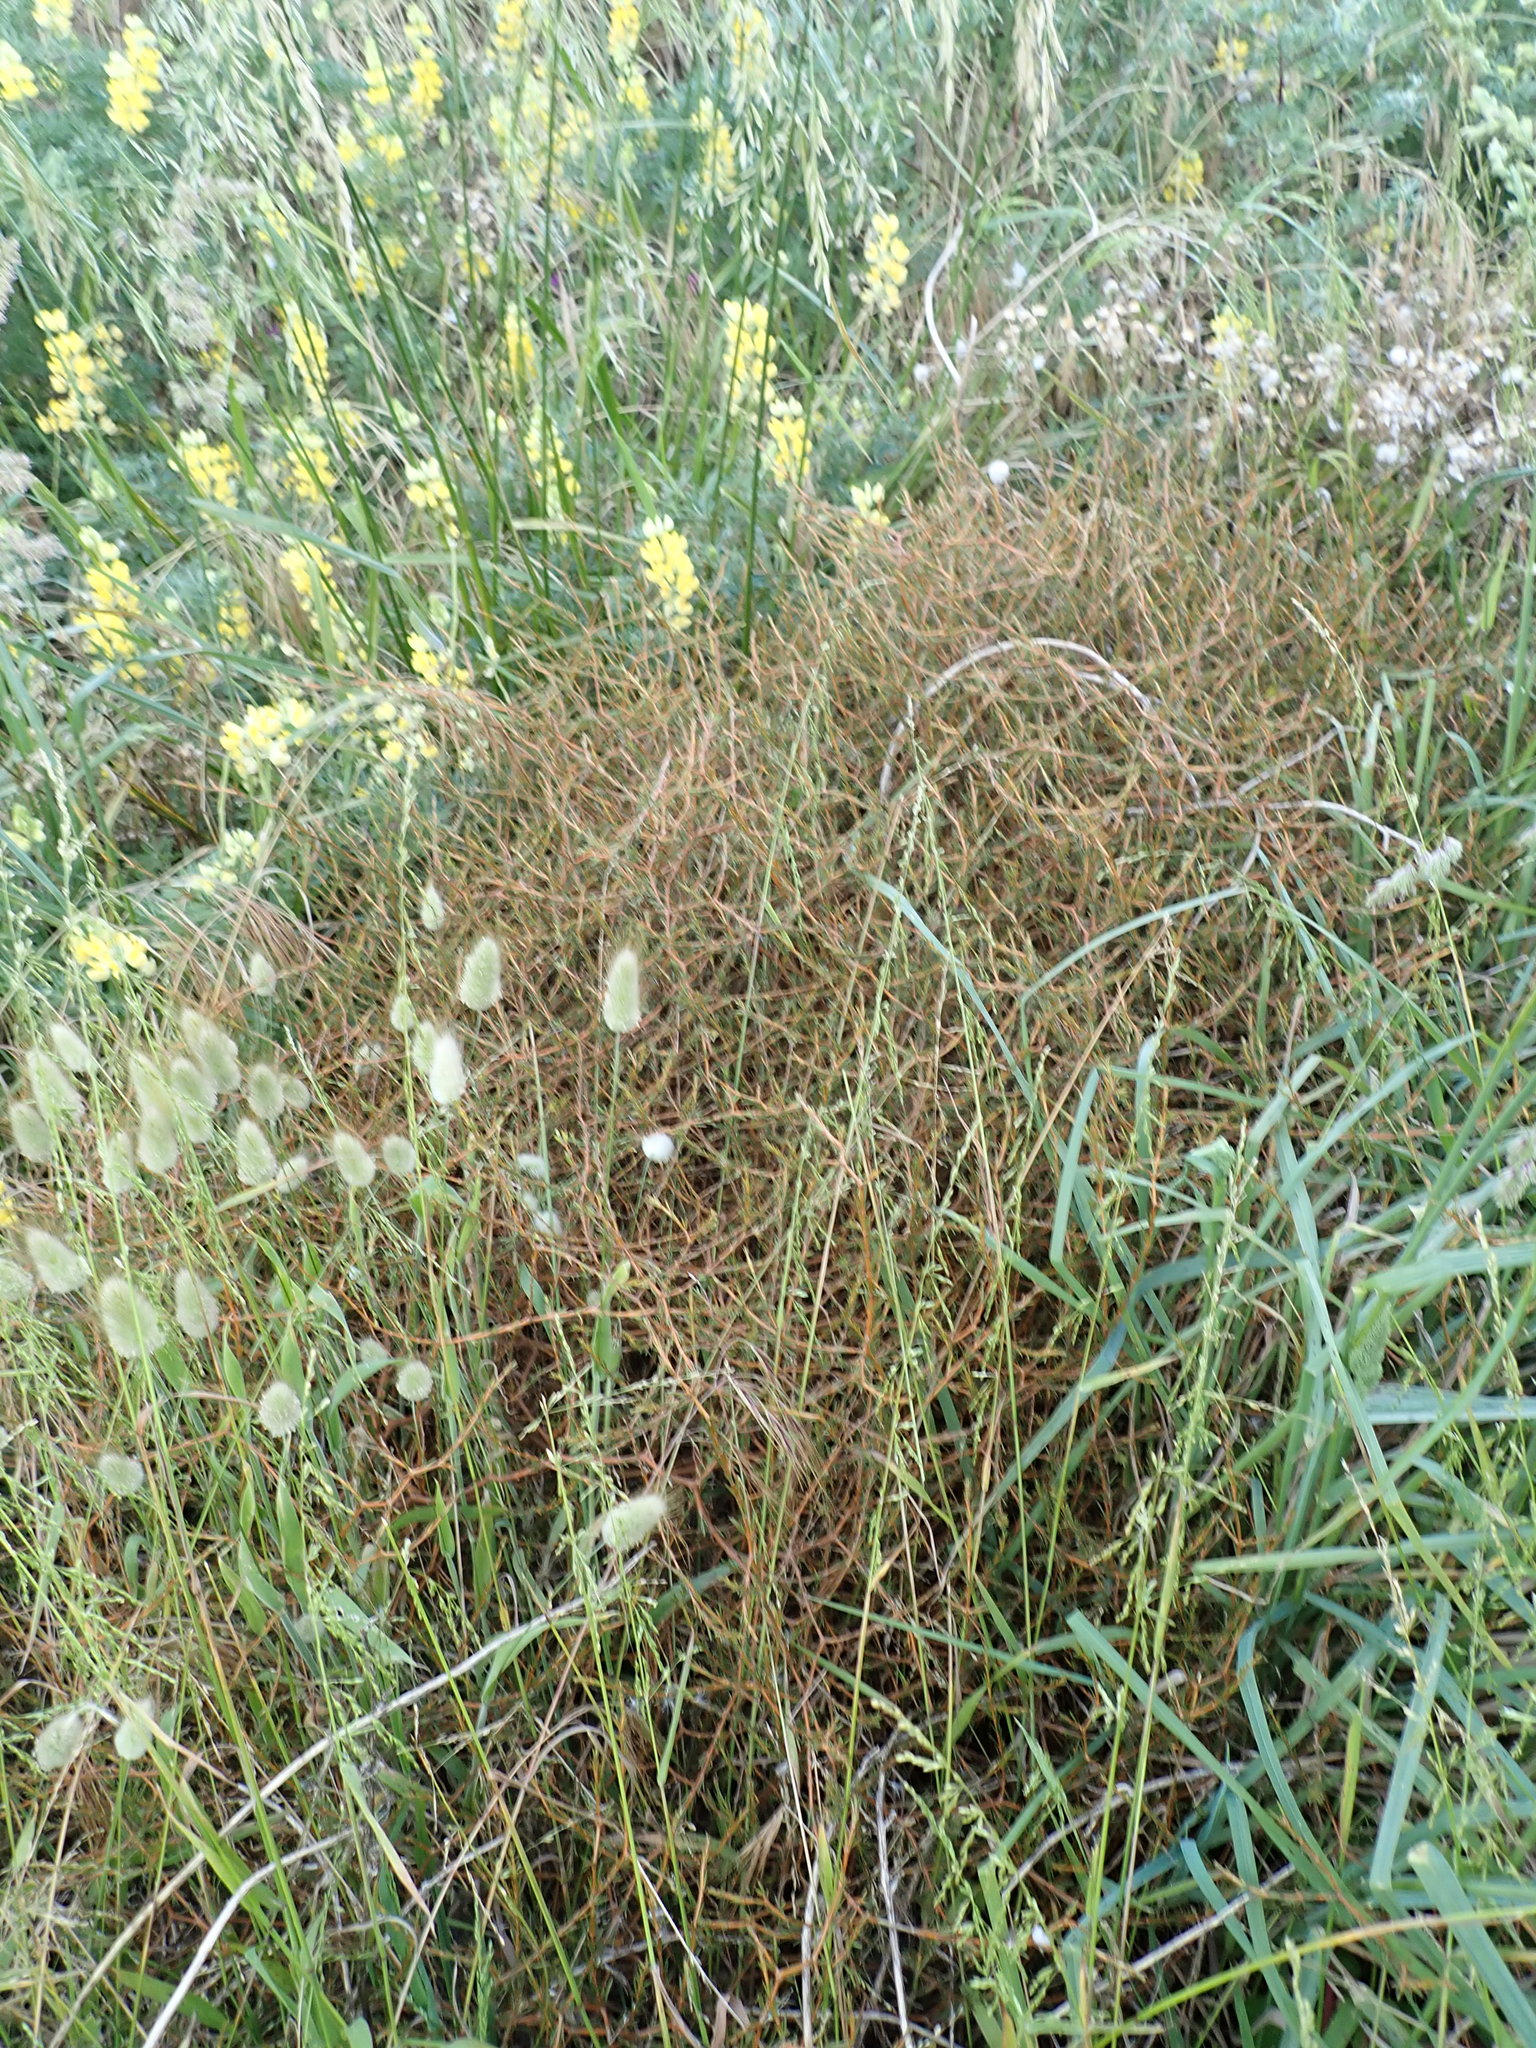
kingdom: Plantae
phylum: Tracheophyta
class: Magnoliopsida
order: Gentianales
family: Rubiaceae
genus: Coprosma
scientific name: Coprosma acerosa
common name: Sand coprosma
